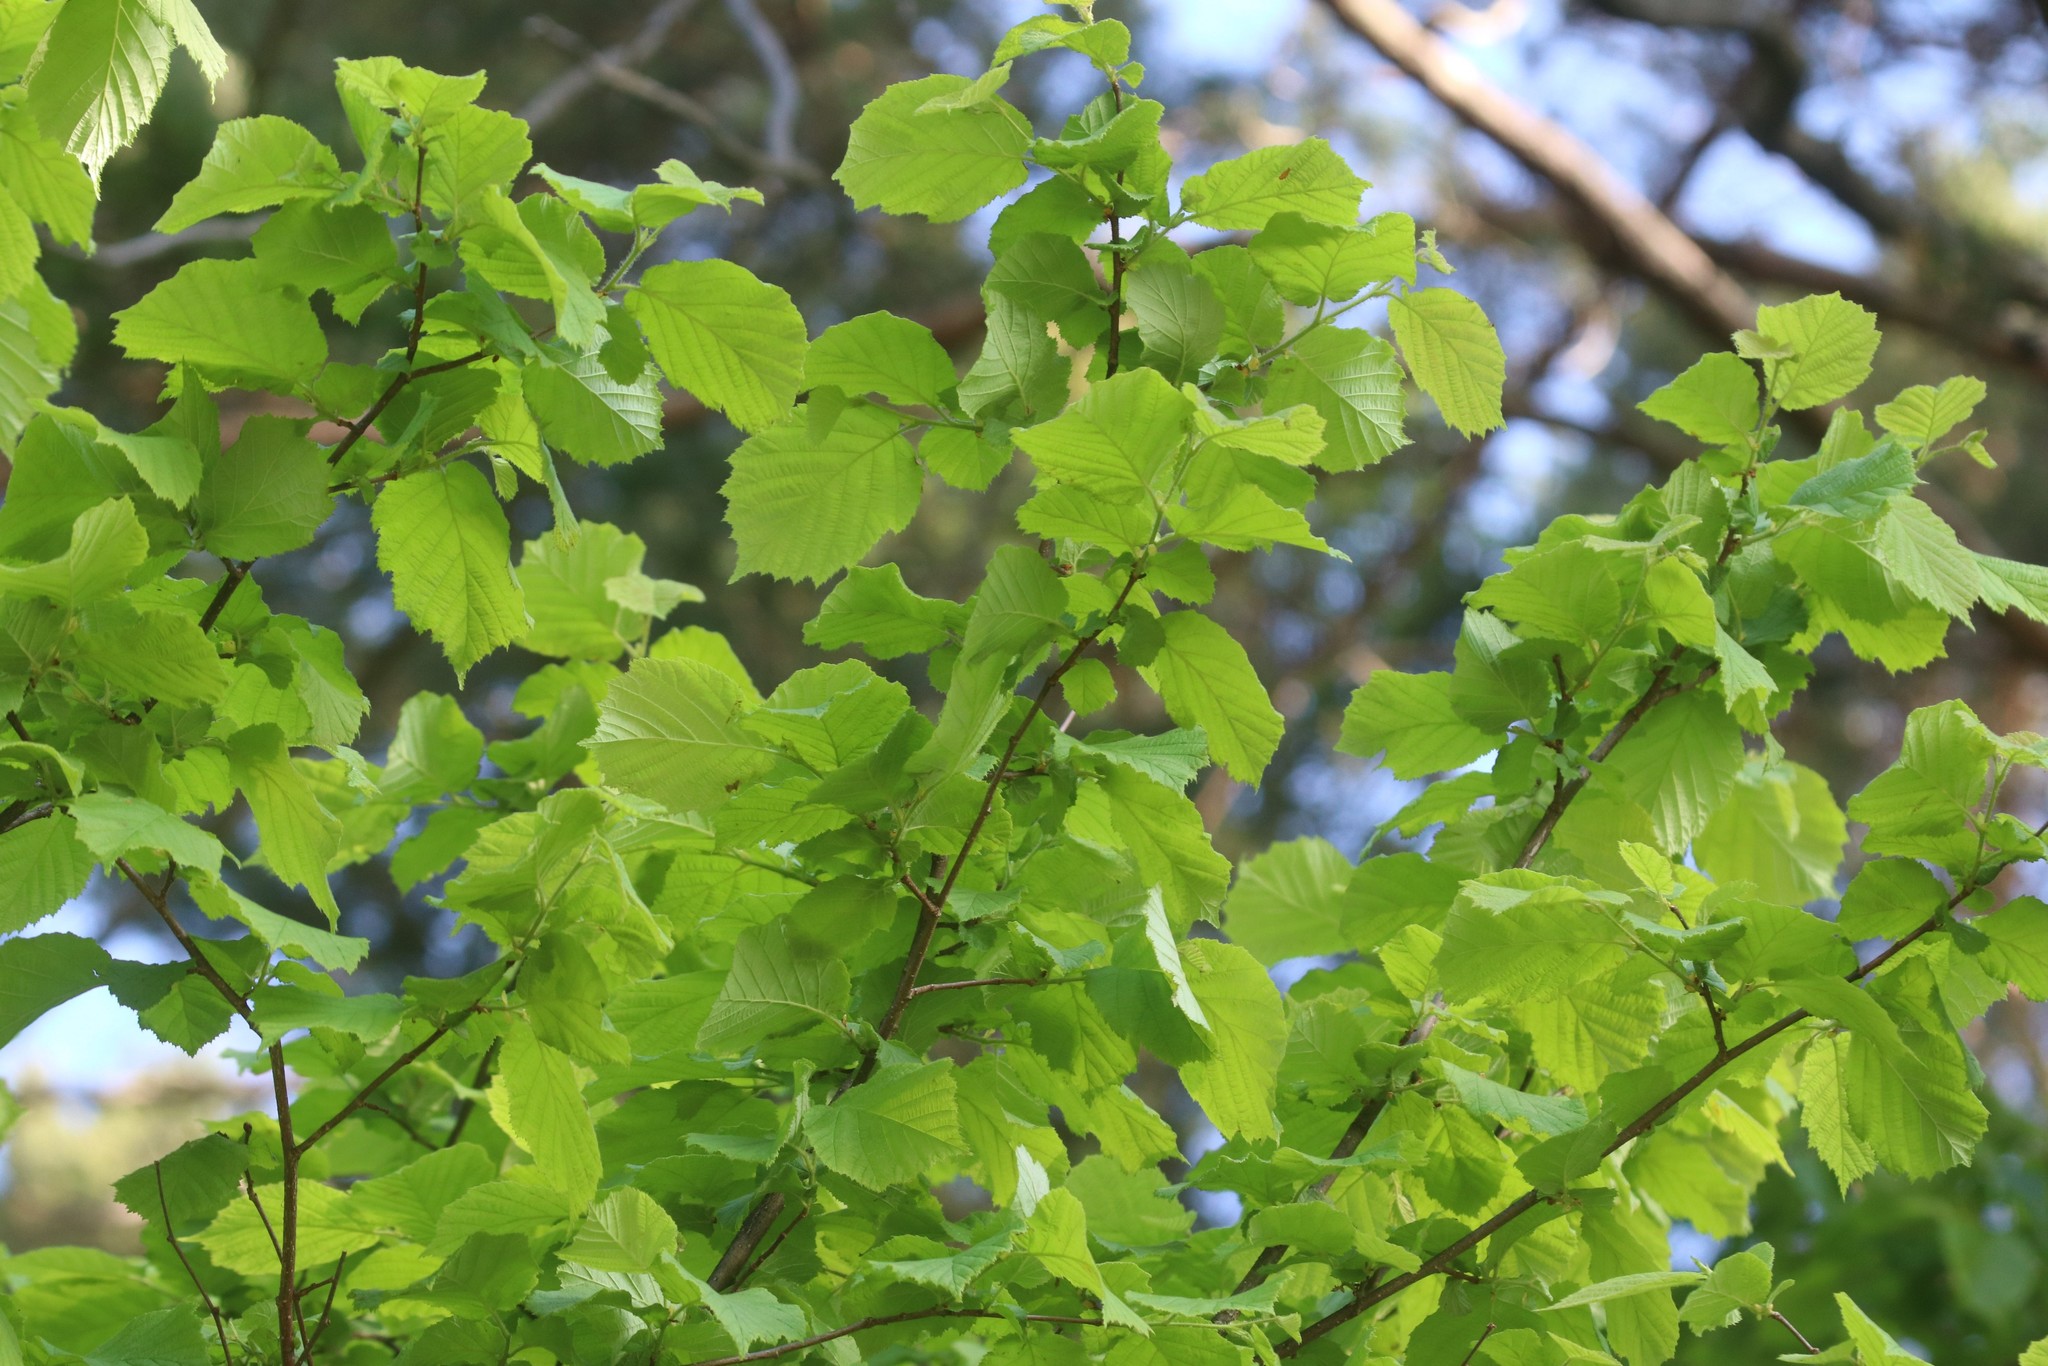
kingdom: Plantae
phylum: Tracheophyta
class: Magnoliopsida
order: Fagales
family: Betulaceae
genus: Corylus
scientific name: Corylus avellana
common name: European hazel
